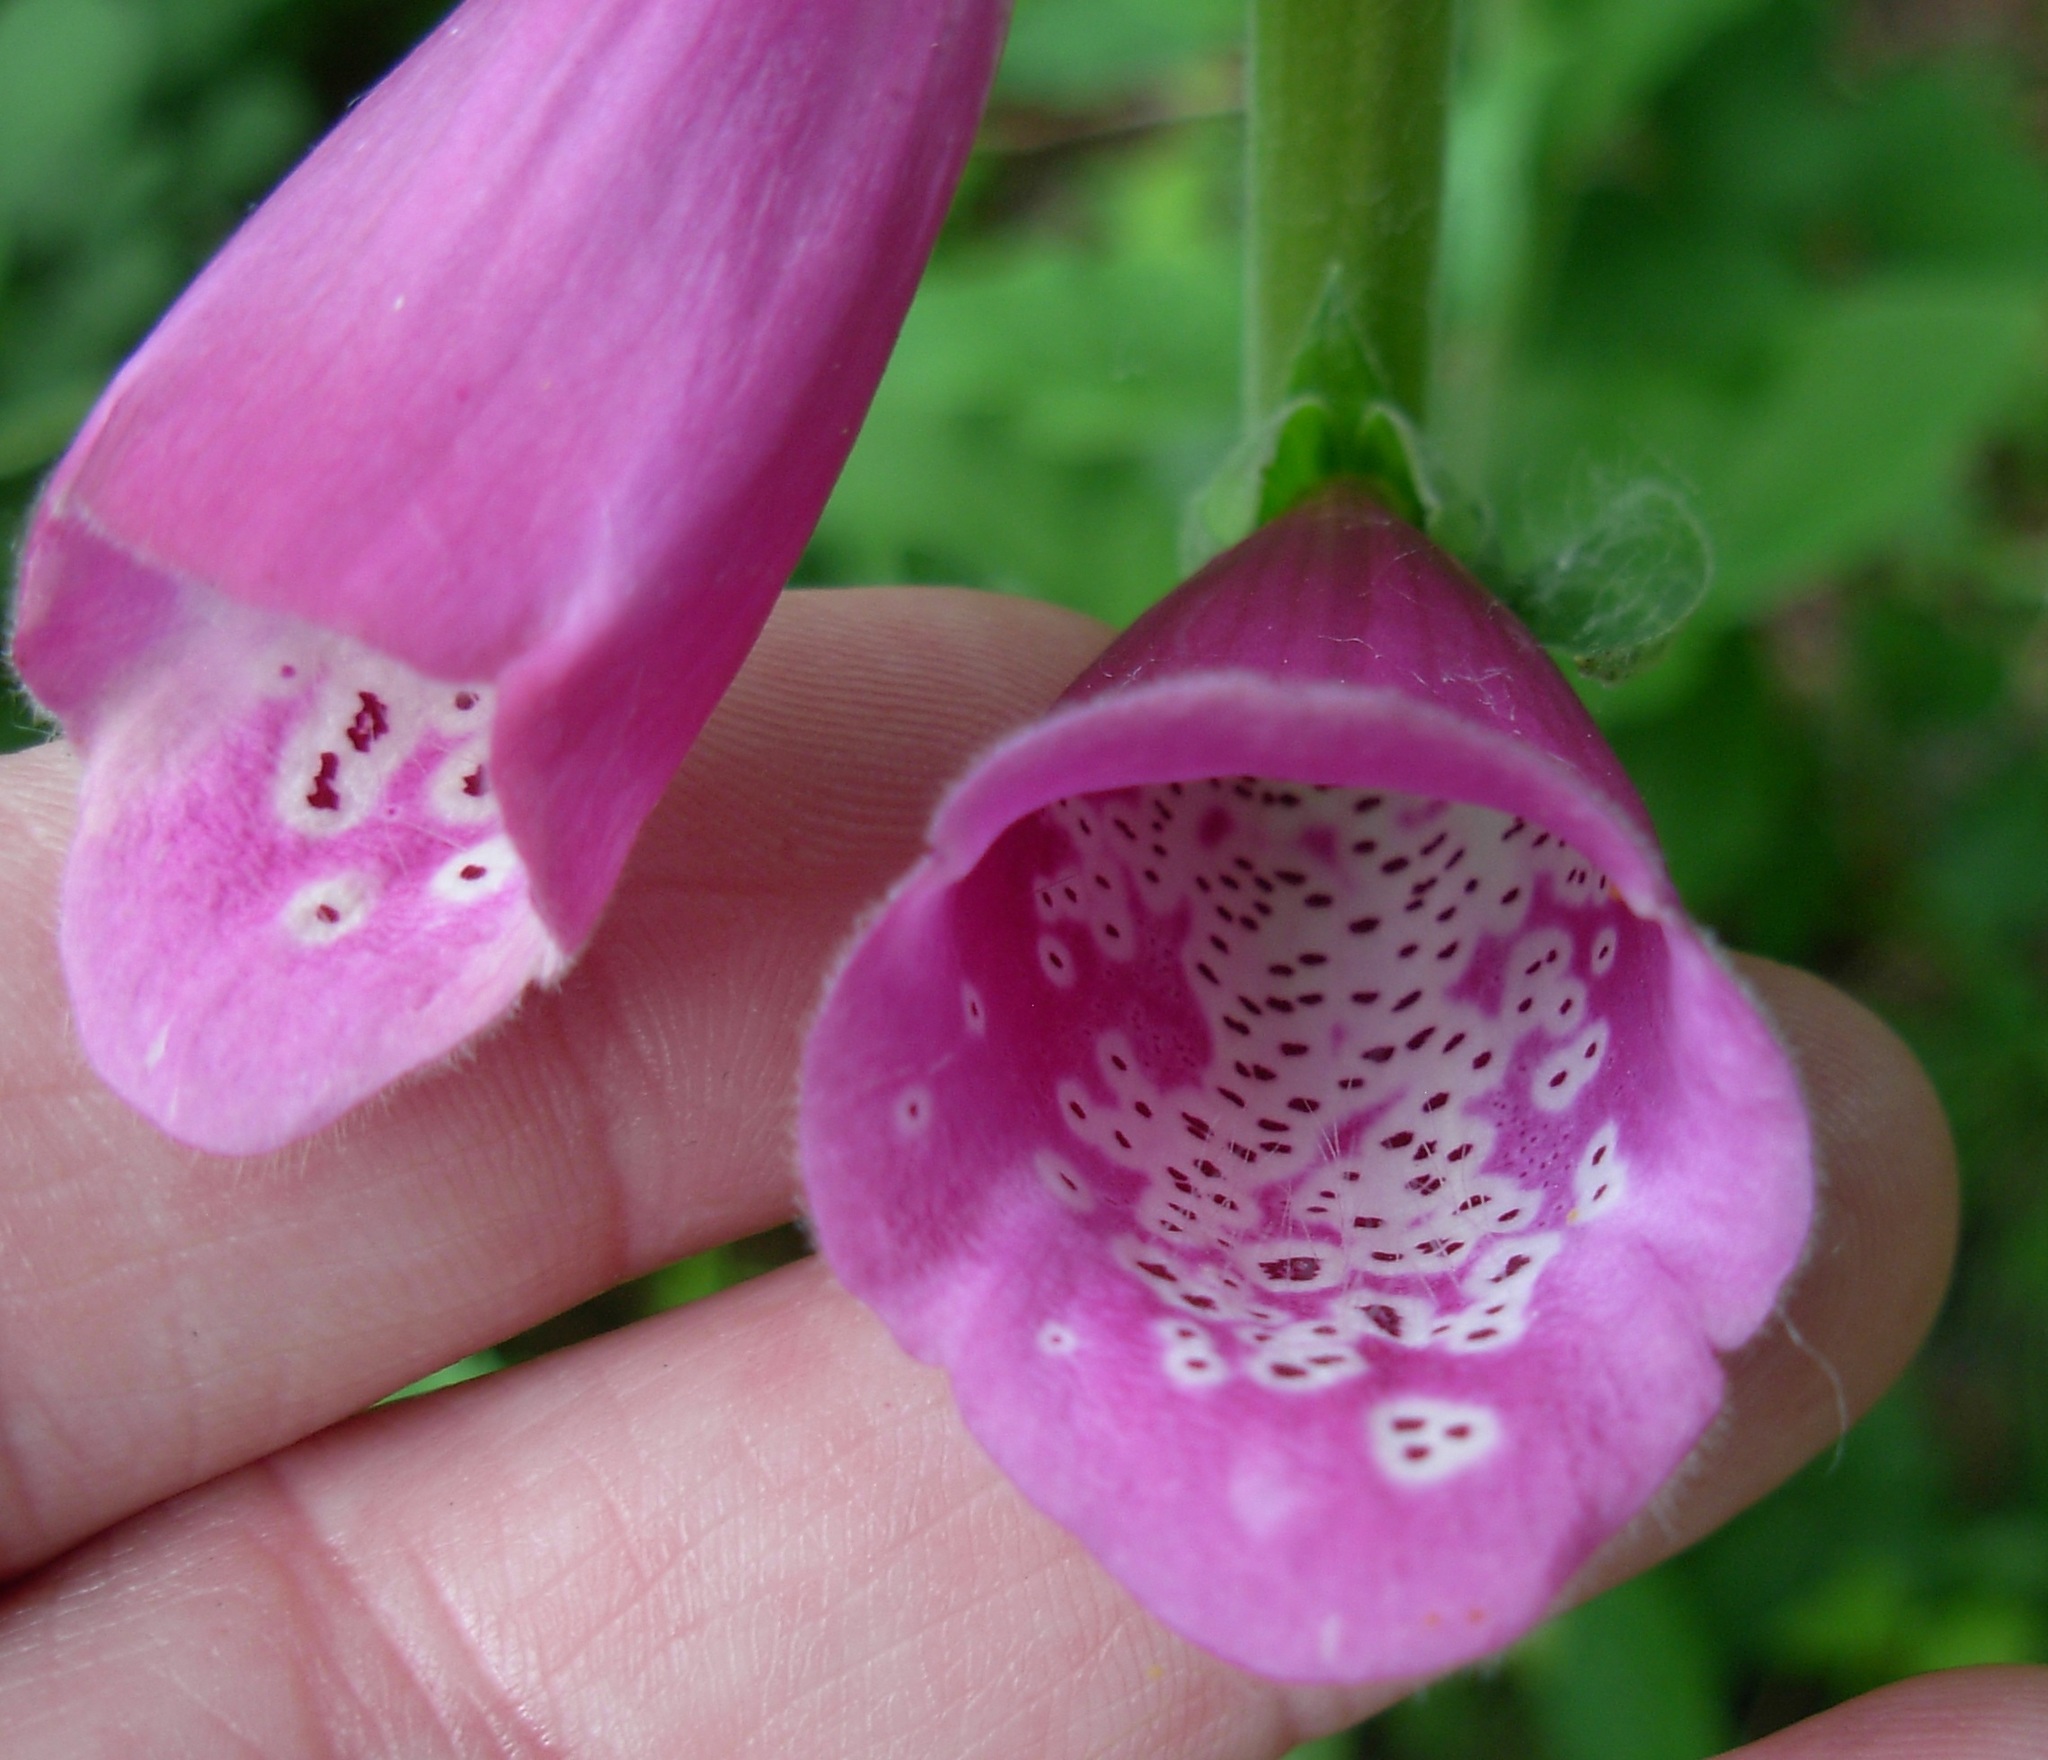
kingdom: Plantae
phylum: Tracheophyta
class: Magnoliopsida
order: Lamiales
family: Plantaginaceae
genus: Digitalis
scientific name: Digitalis purpurea
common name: Foxglove
